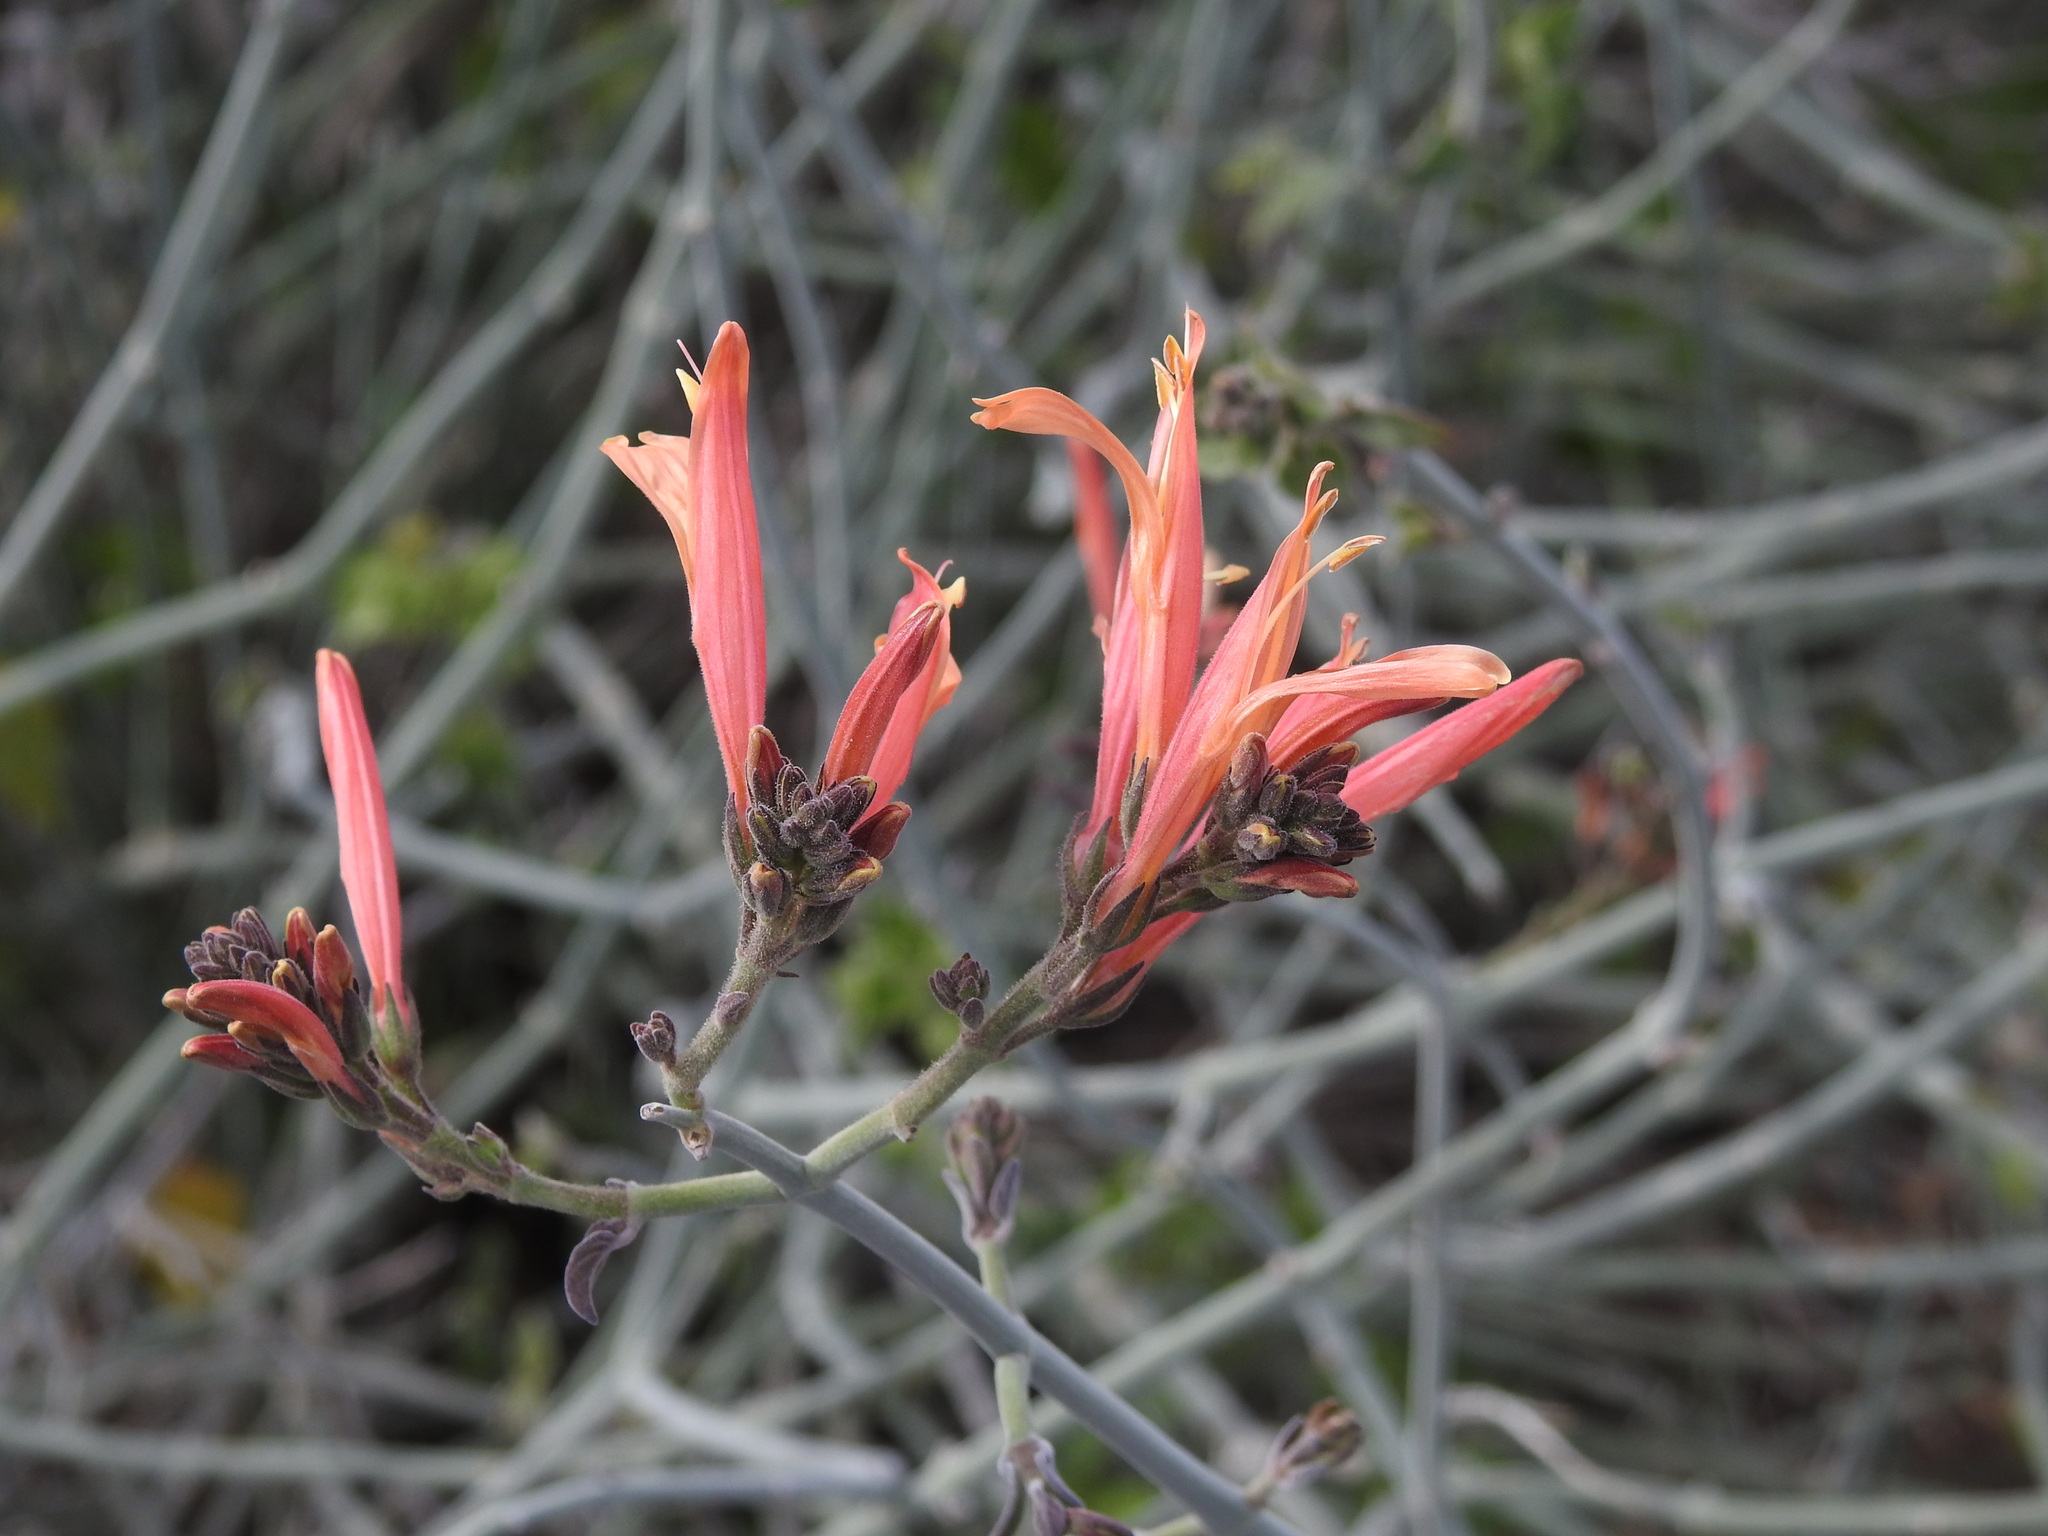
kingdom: Plantae
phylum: Tracheophyta
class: Magnoliopsida
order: Lamiales
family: Acanthaceae
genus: Justicia
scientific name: Justicia californica
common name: Chuparosa-honeysuckle
